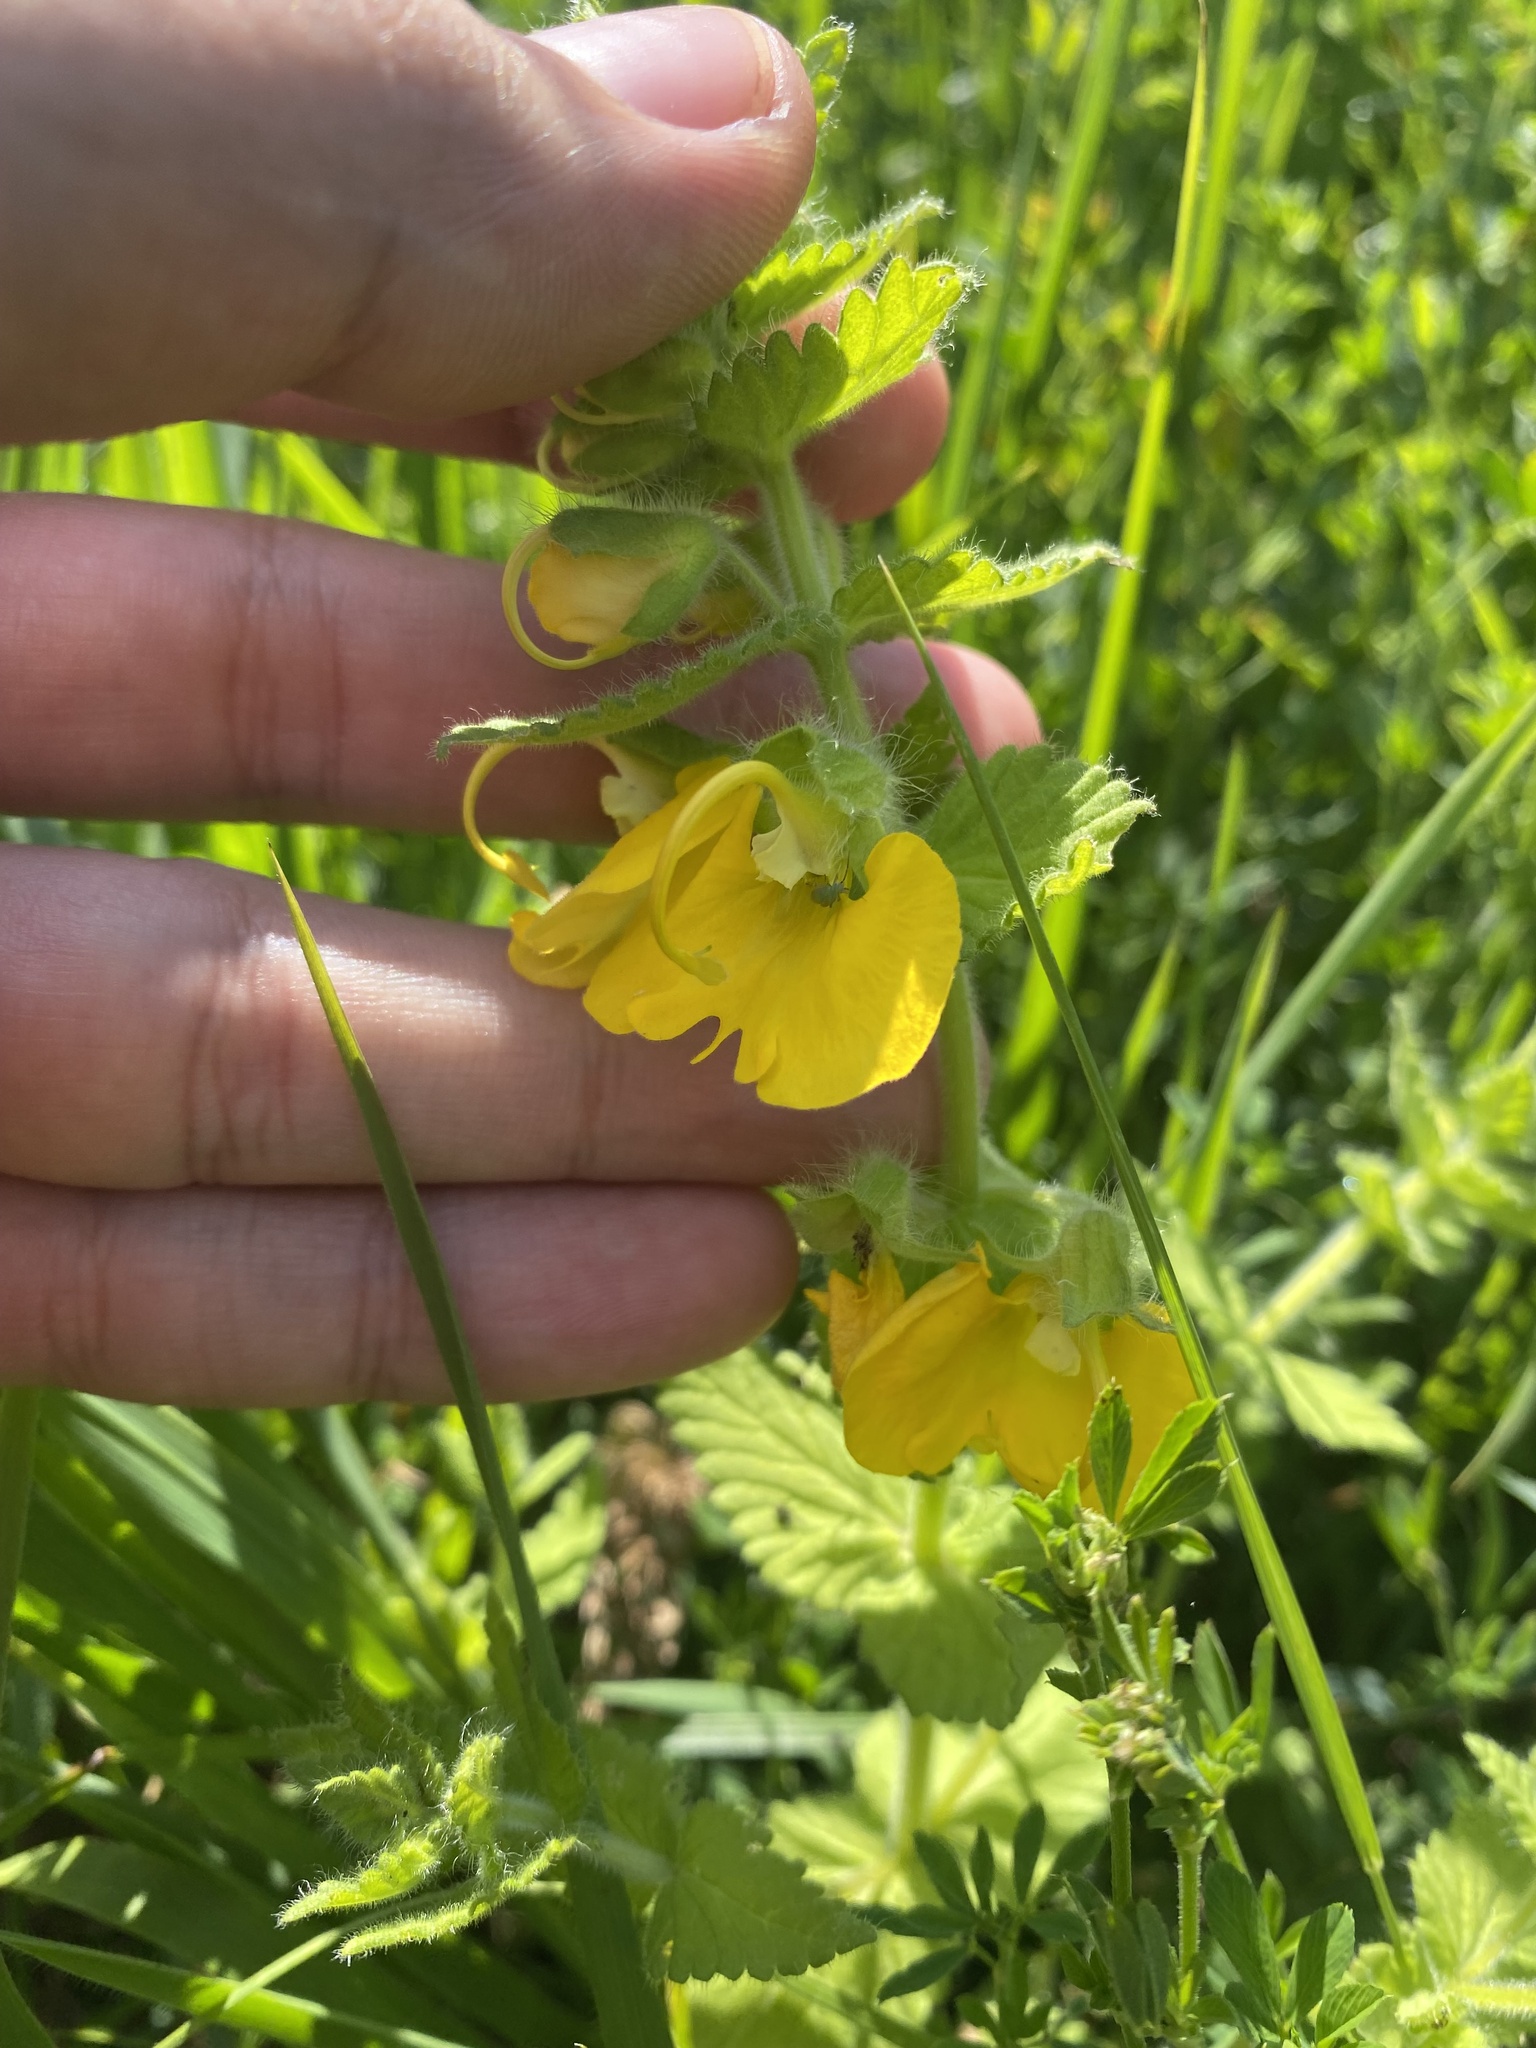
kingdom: Plantae
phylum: Tracheophyta
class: Magnoliopsida
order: Lamiales
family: Orobanchaceae
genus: Rhynchocorys
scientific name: Rhynchocorys orientalis
